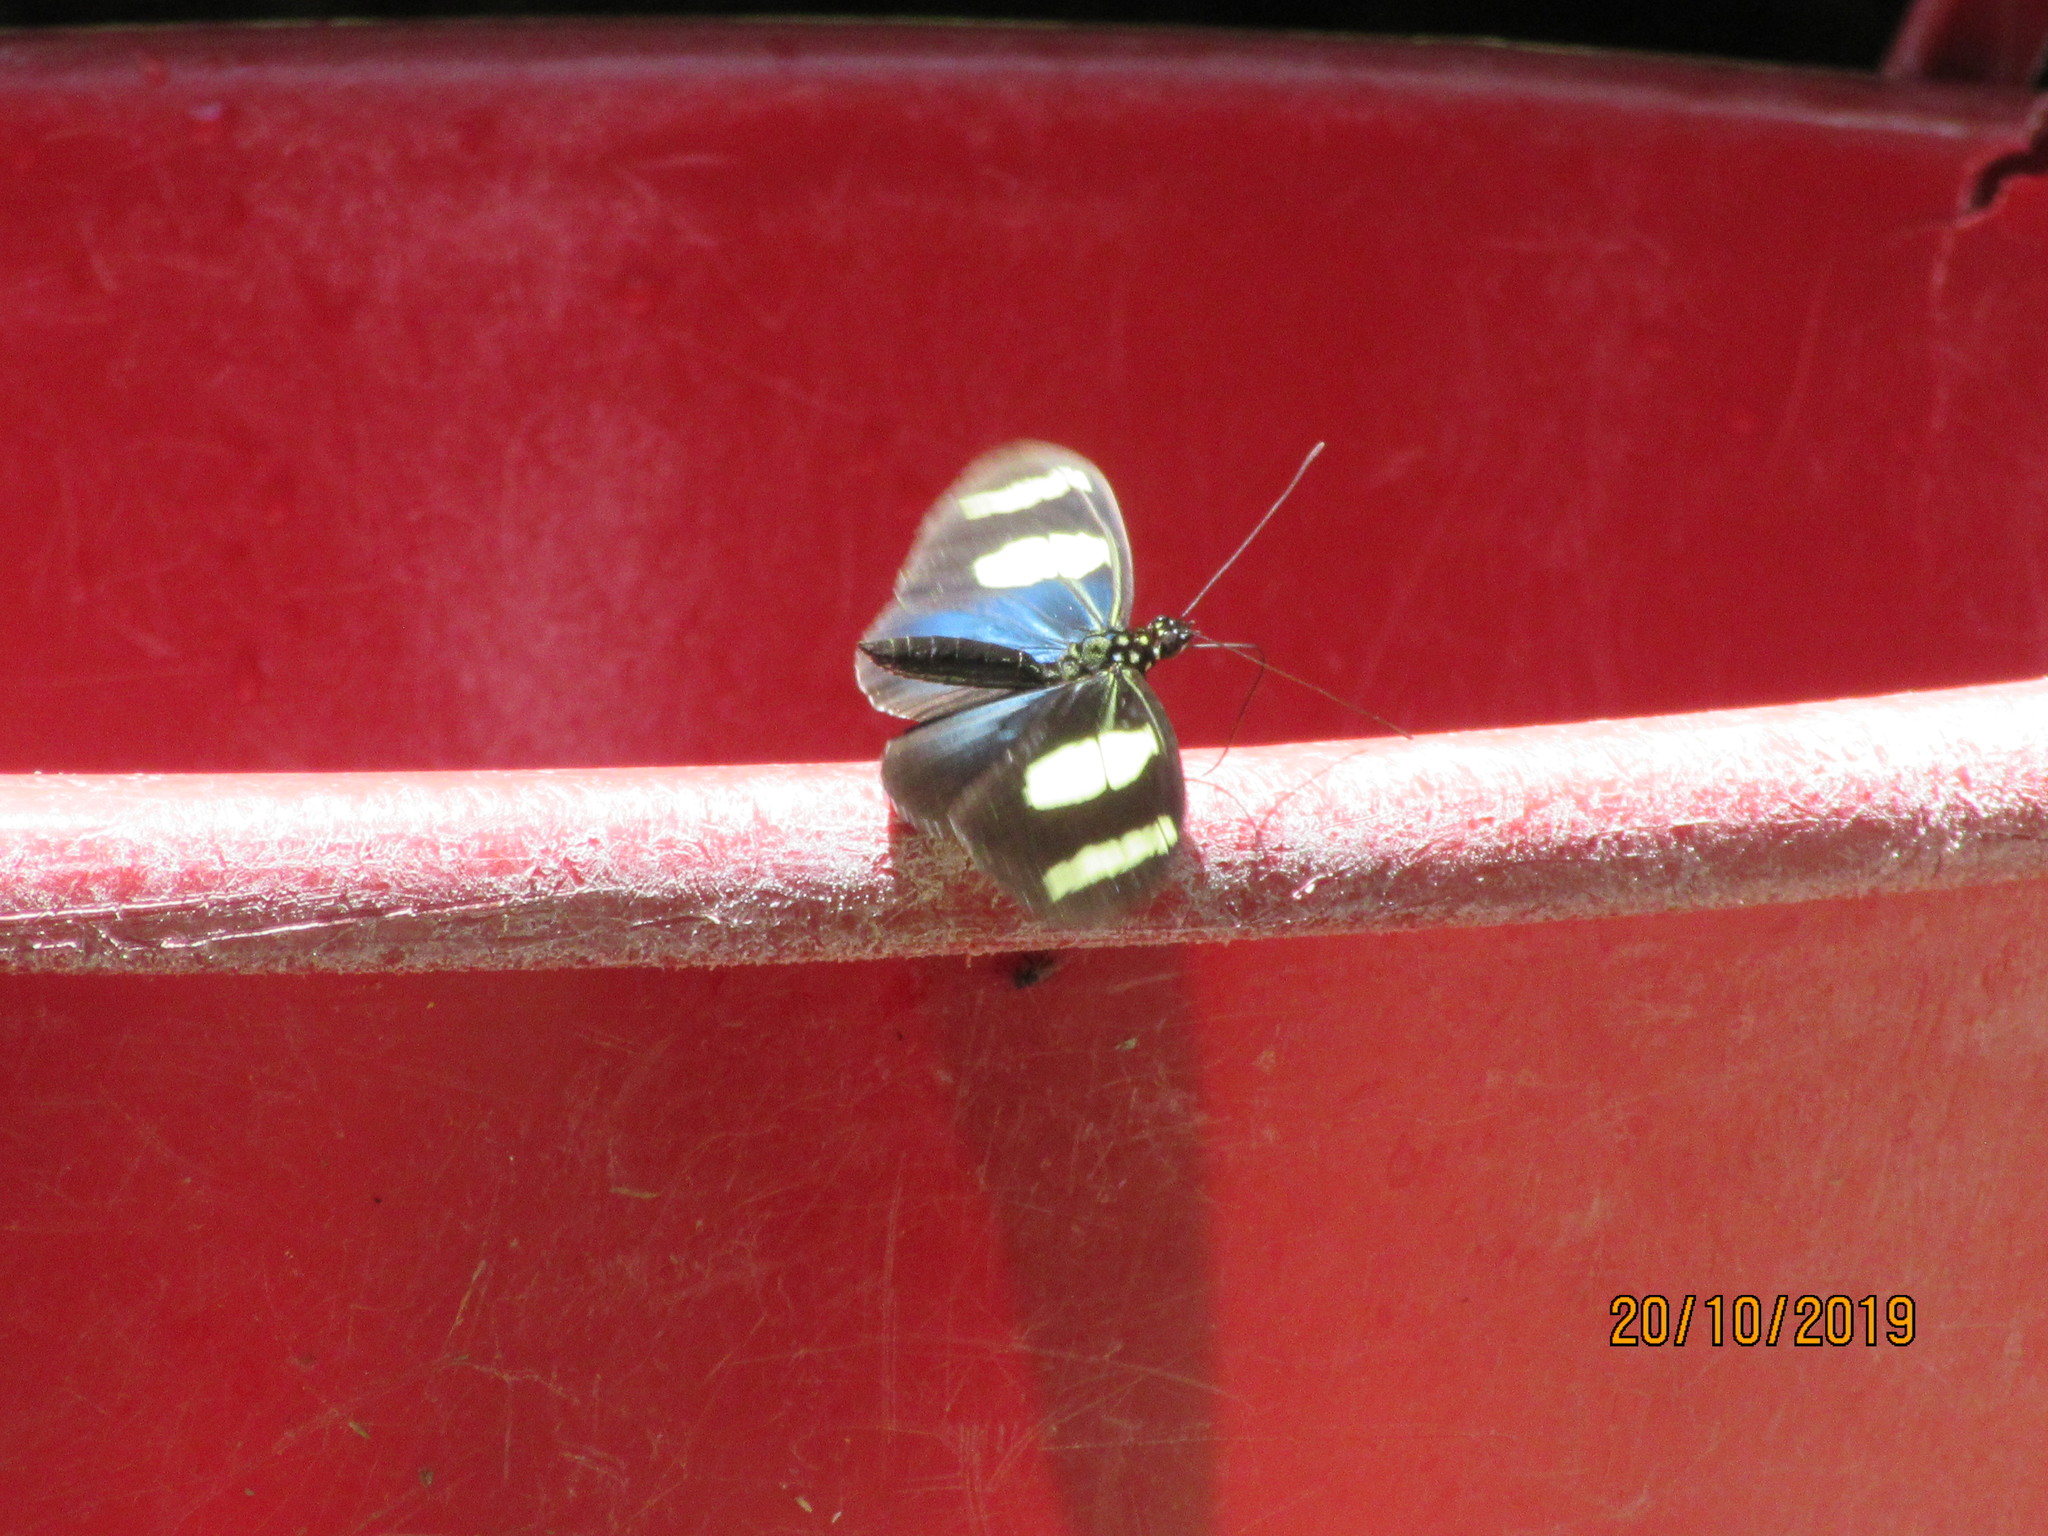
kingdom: Animalia
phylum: Arthropoda
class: Insecta
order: Lepidoptera
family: Nymphalidae
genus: Heliconius
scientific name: Heliconius wallacei
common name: Wallace's longwing
